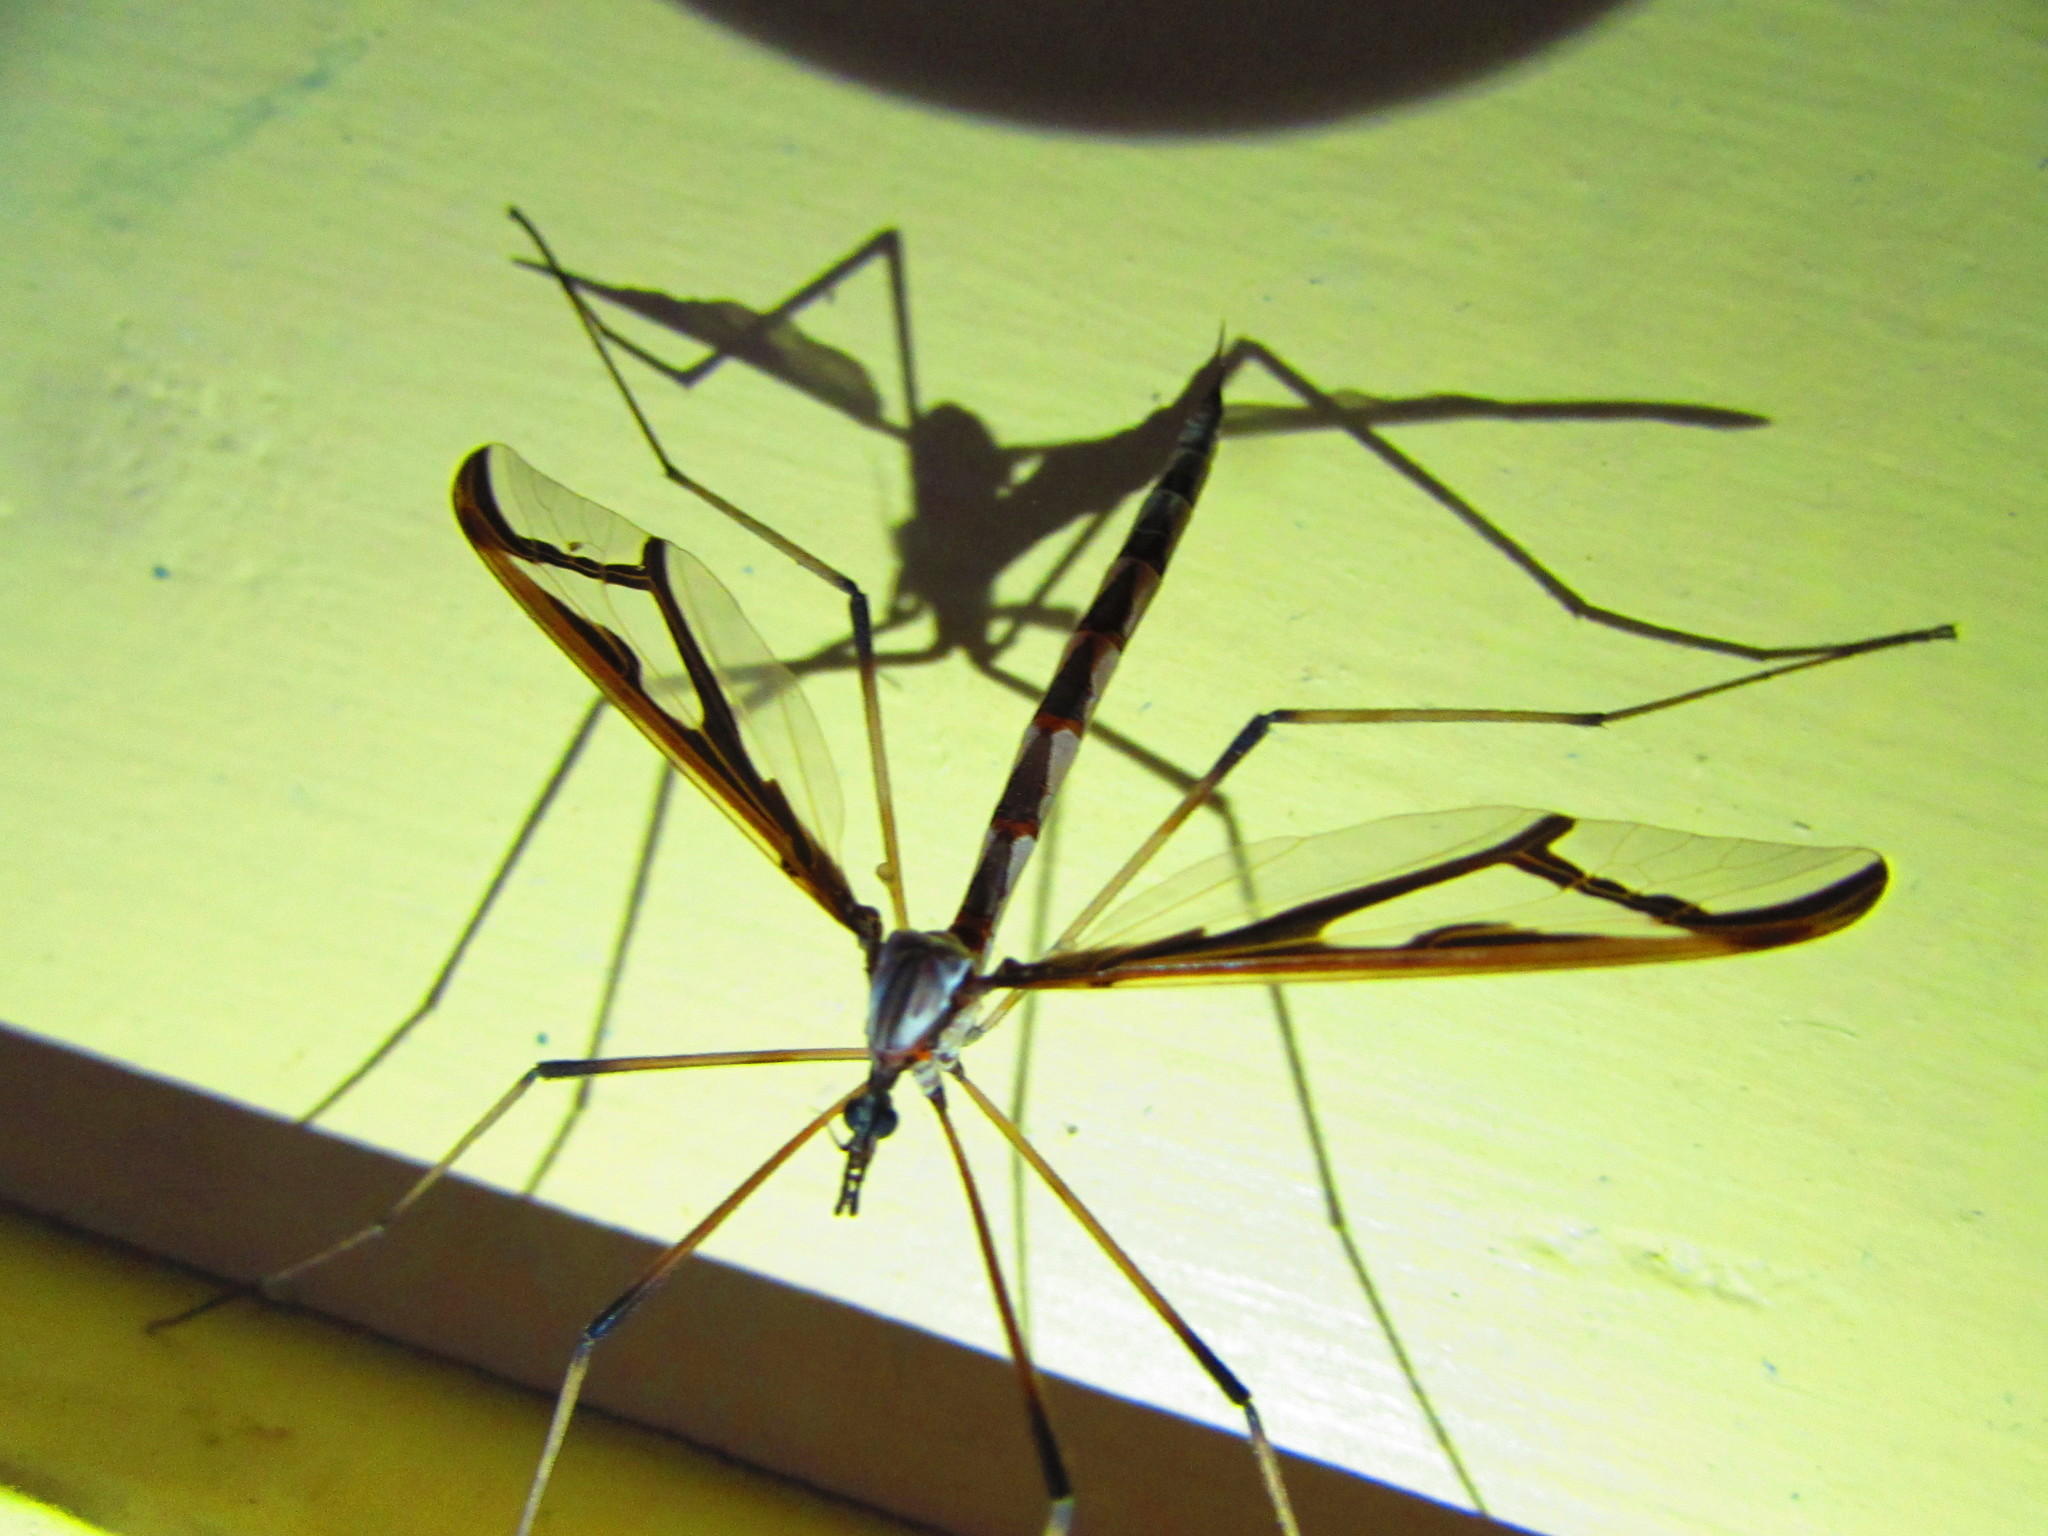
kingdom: Animalia
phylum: Arthropoda
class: Insecta
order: Diptera
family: Pediciidae
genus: Pedicia
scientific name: Pedicia albivitta
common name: Giant eastern crane fly
